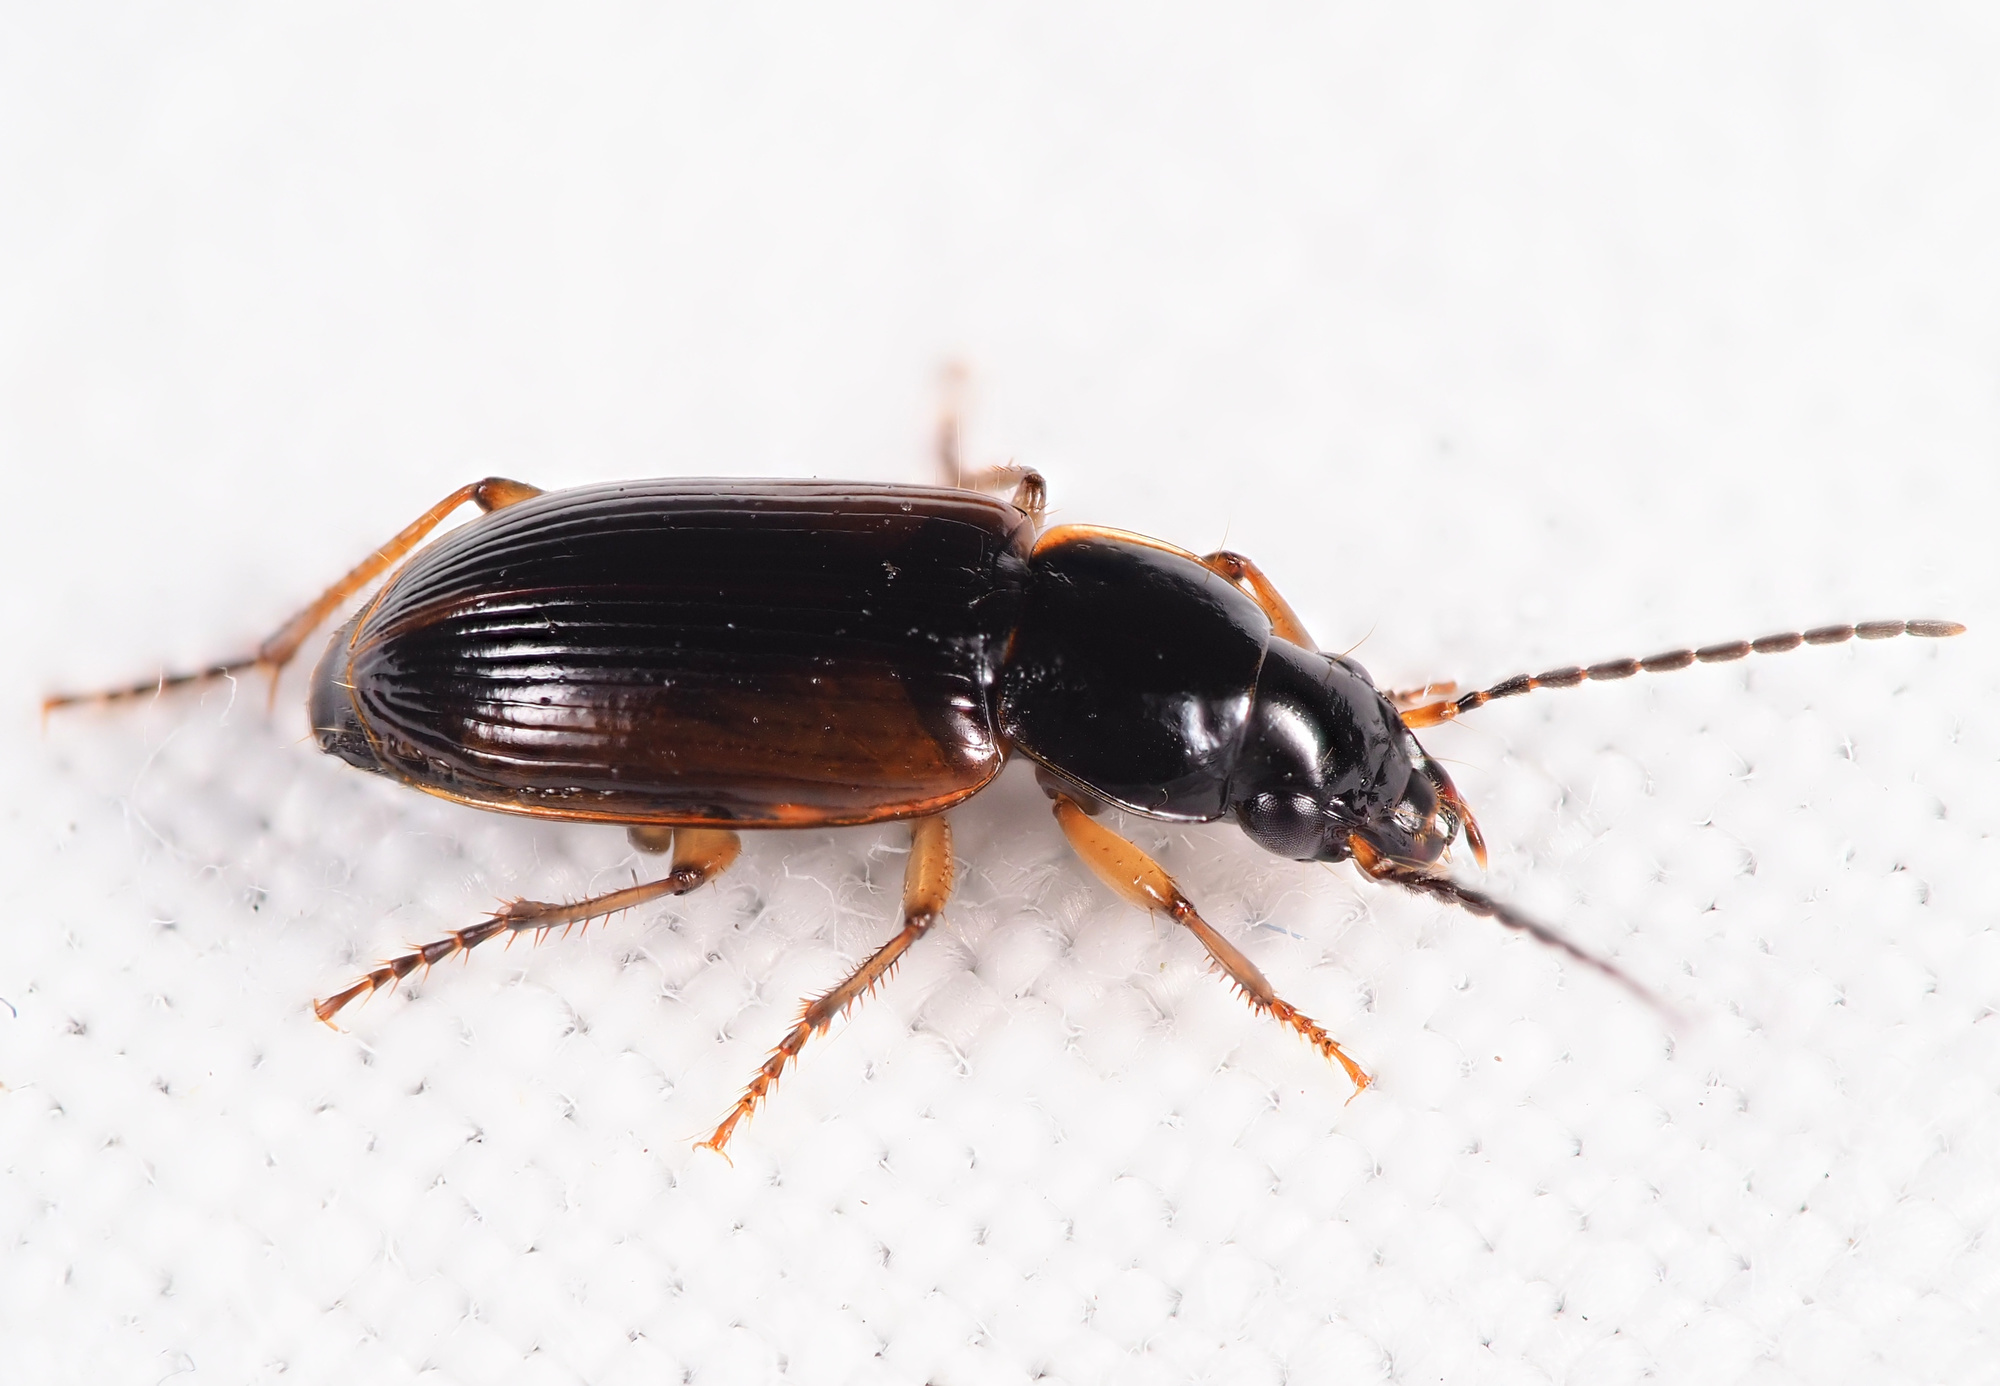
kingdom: Animalia
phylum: Arthropoda
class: Insecta
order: Coleoptera
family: Carabidae
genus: Stenolophus
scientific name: Stenolophus mixtus
